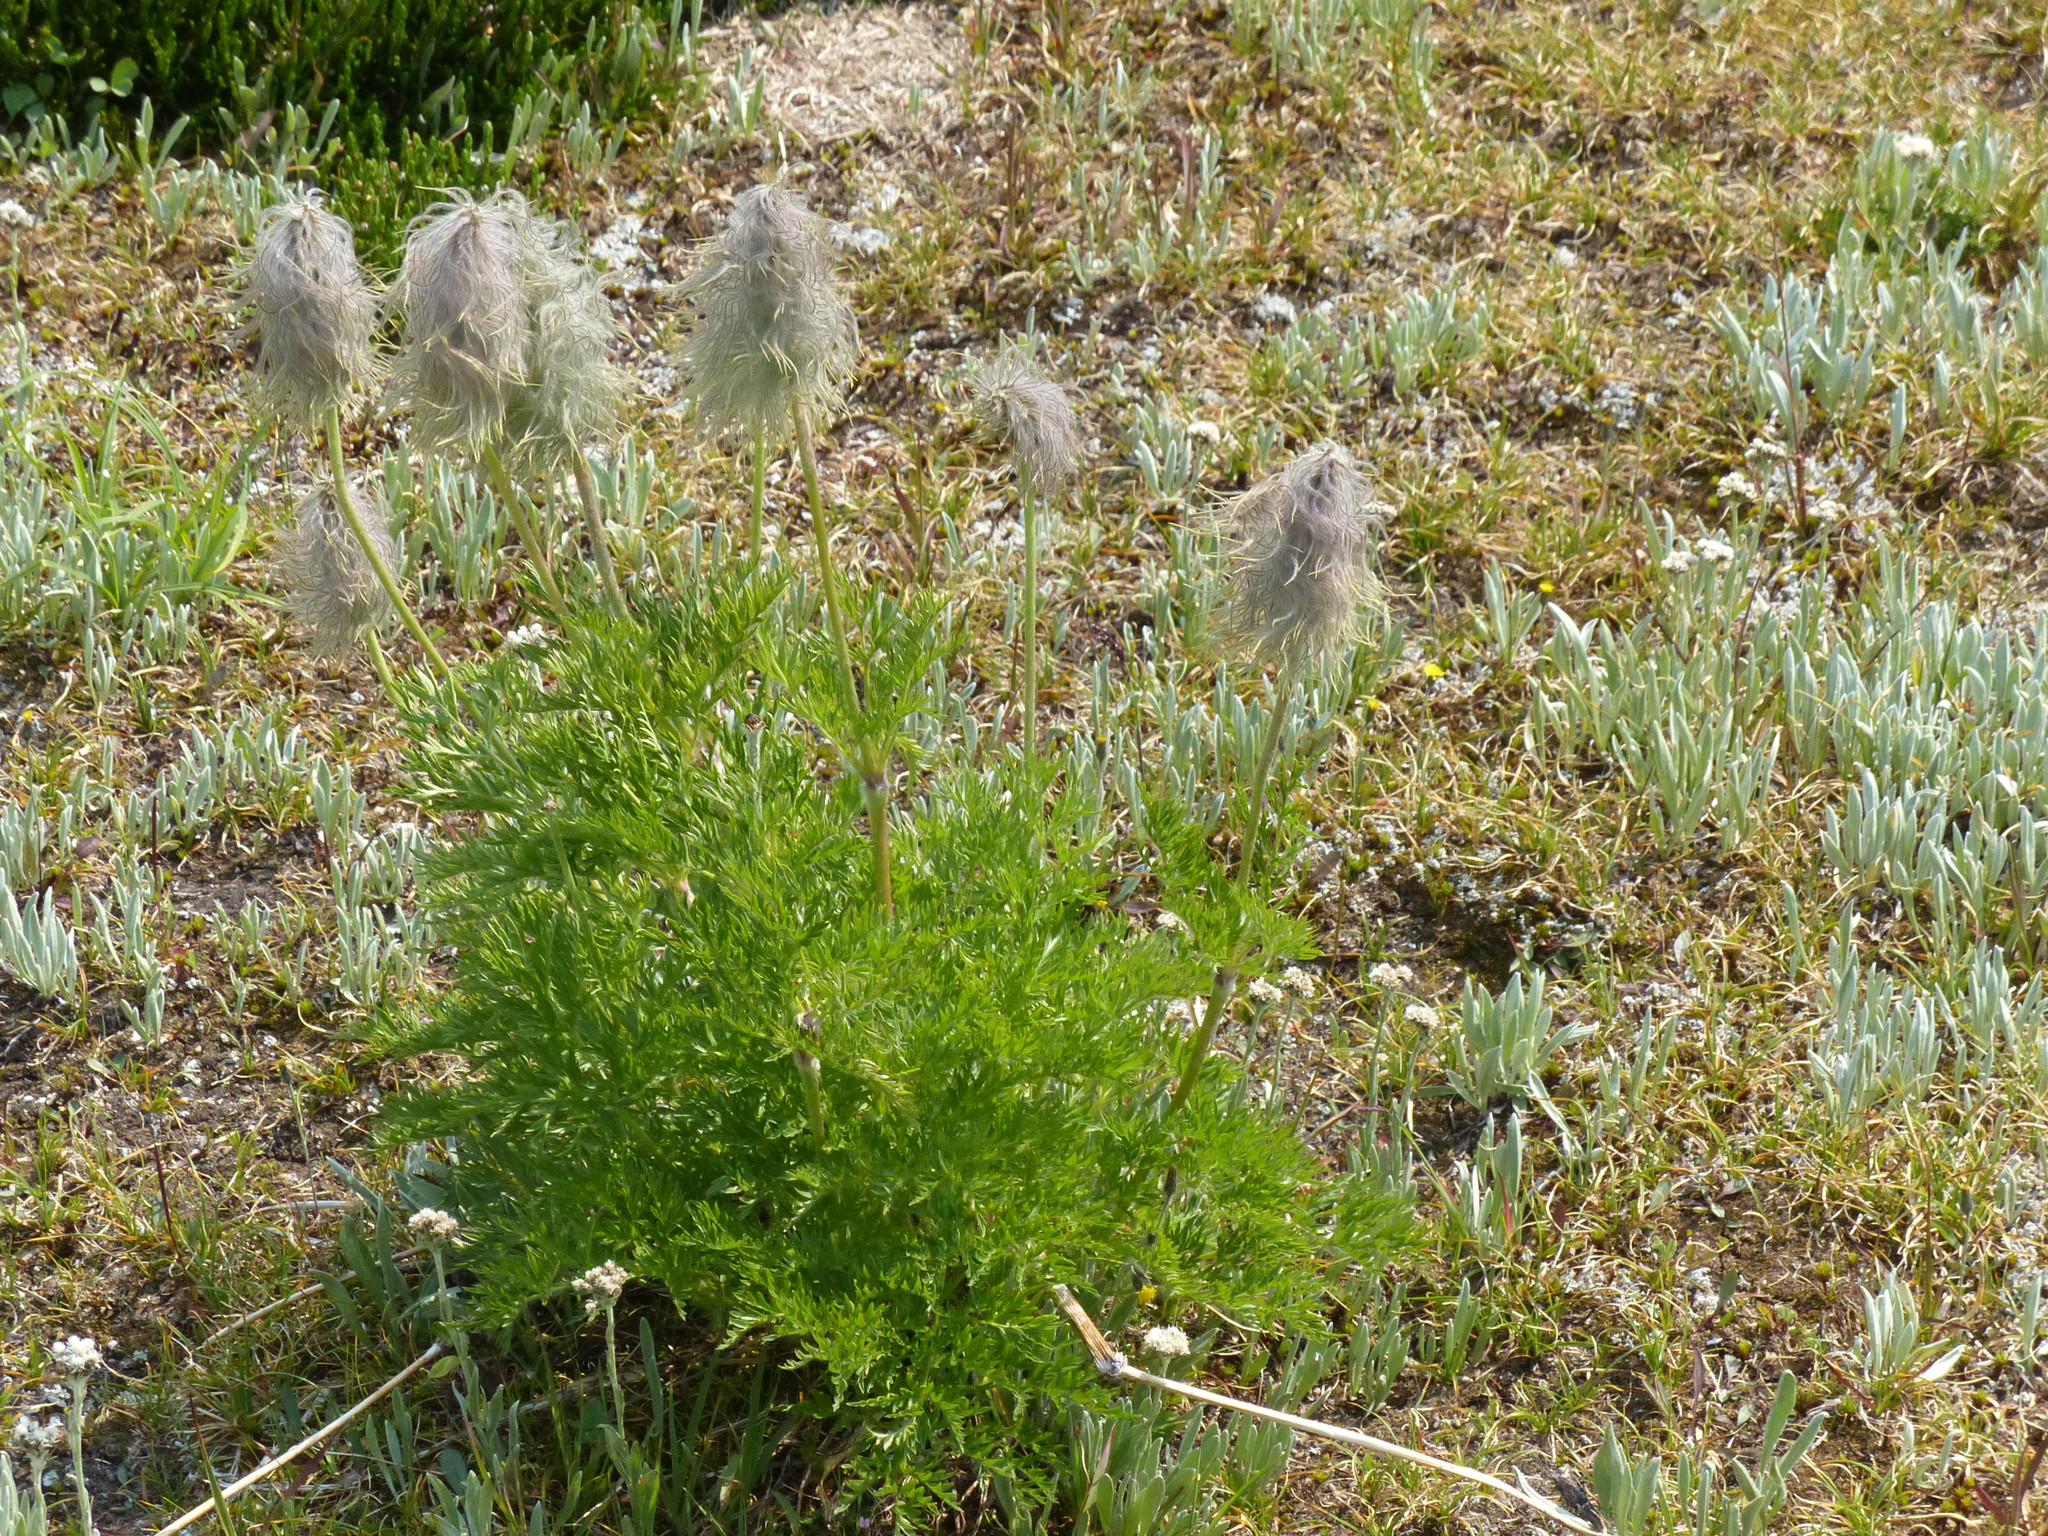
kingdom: Plantae
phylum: Tracheophyta
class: Magnoliopsida
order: Ranunculales
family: Ranunculaceae
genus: Pulsatilla
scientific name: Pulsatilla occidentalis
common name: Mountain pasqueflower
